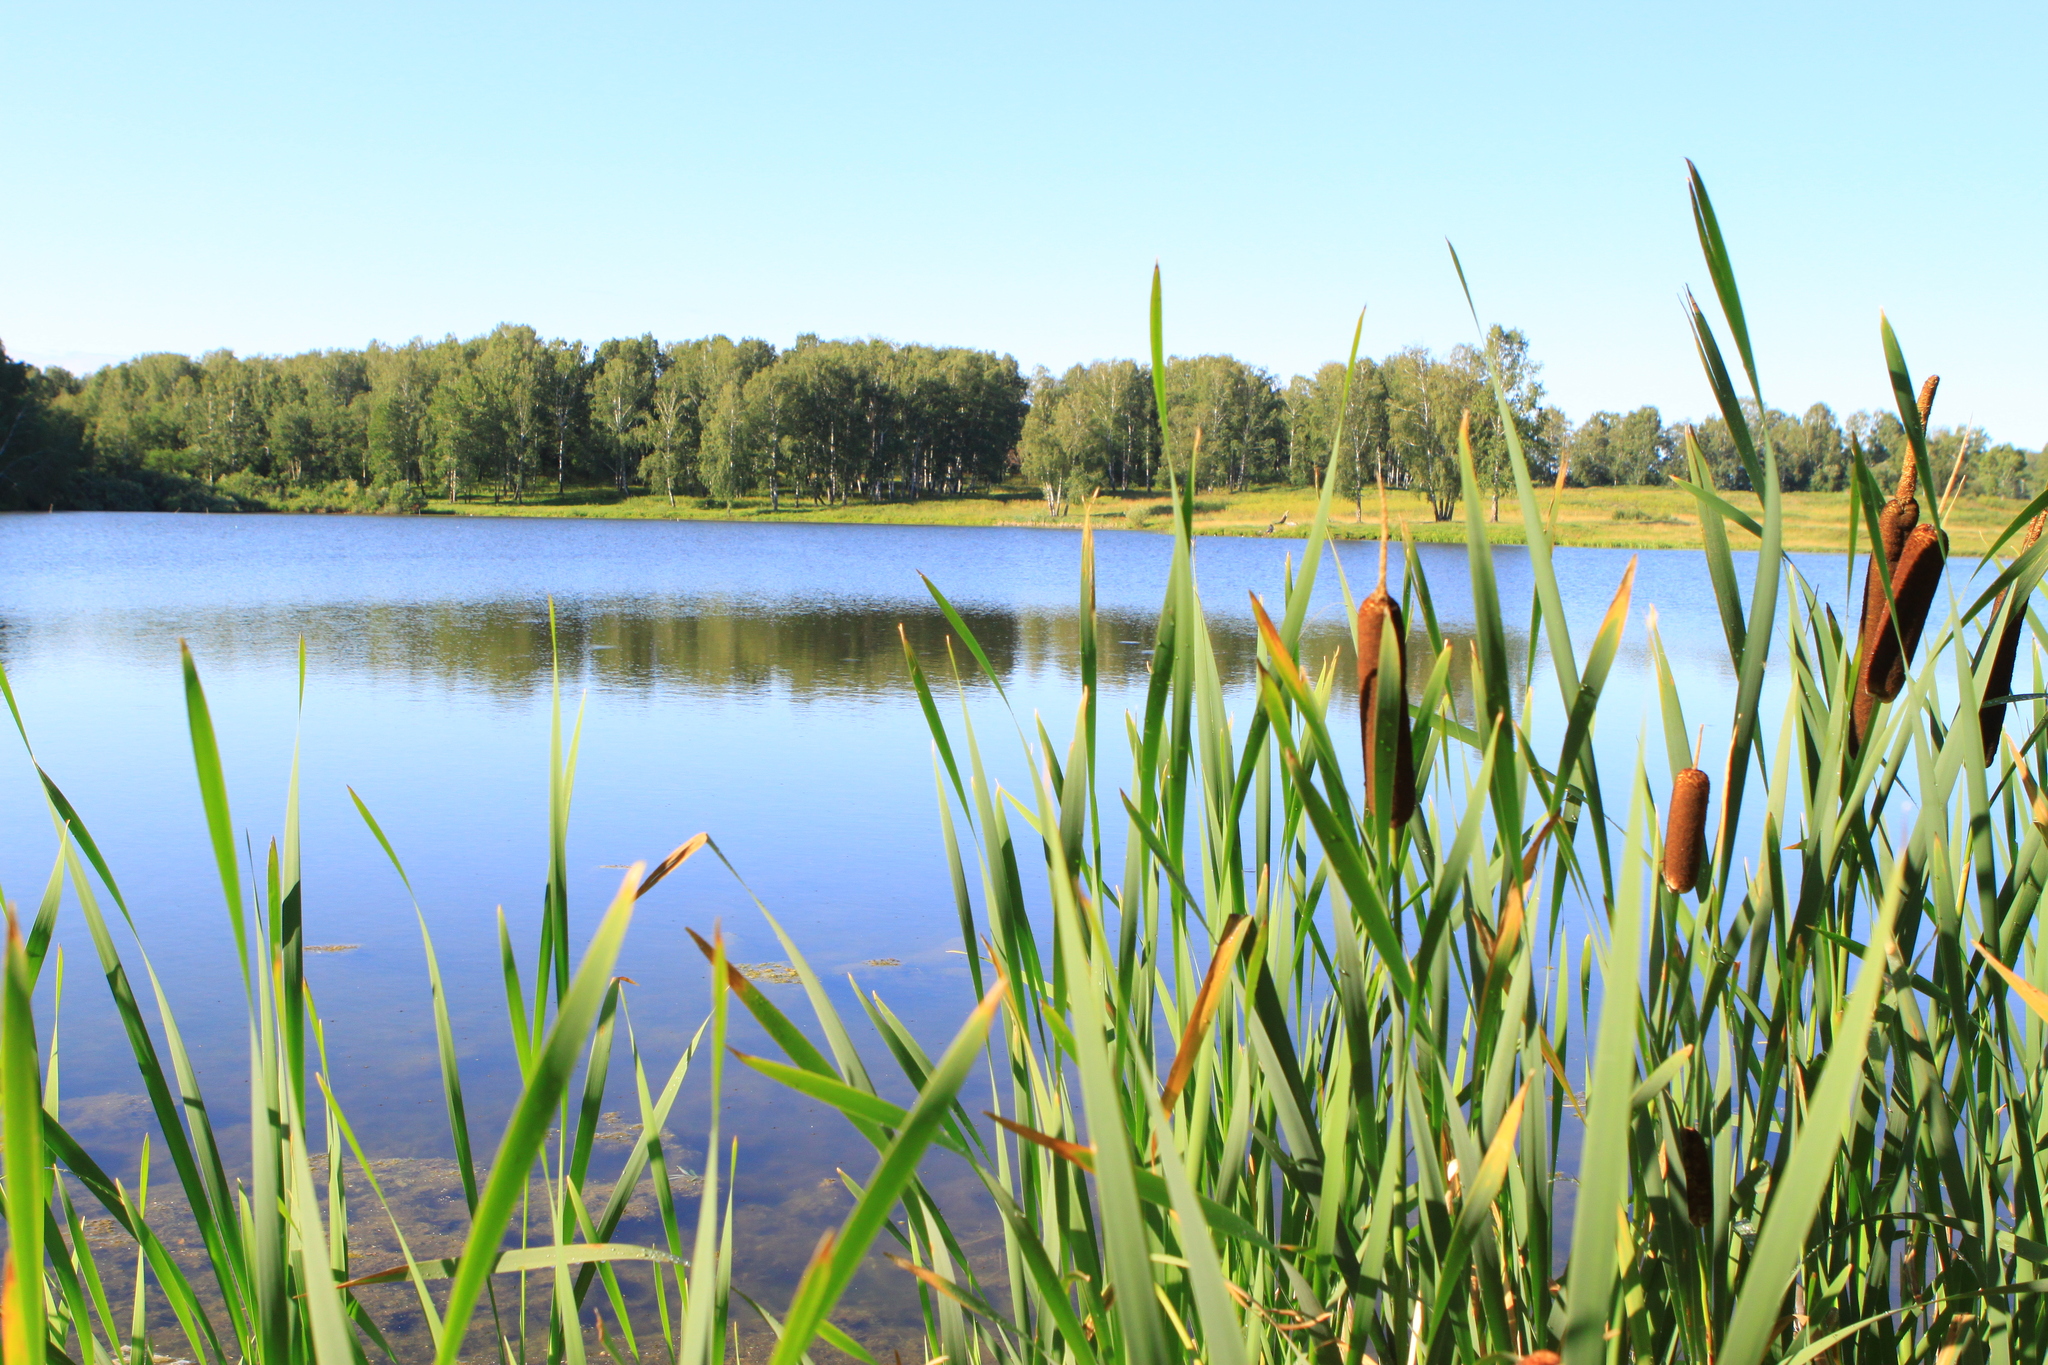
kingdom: Plantae
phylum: Tracheophyta
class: Liliopsida
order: Poales
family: Typhaceae
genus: Typha
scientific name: Typha latifolia
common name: Broadleaf cattail
